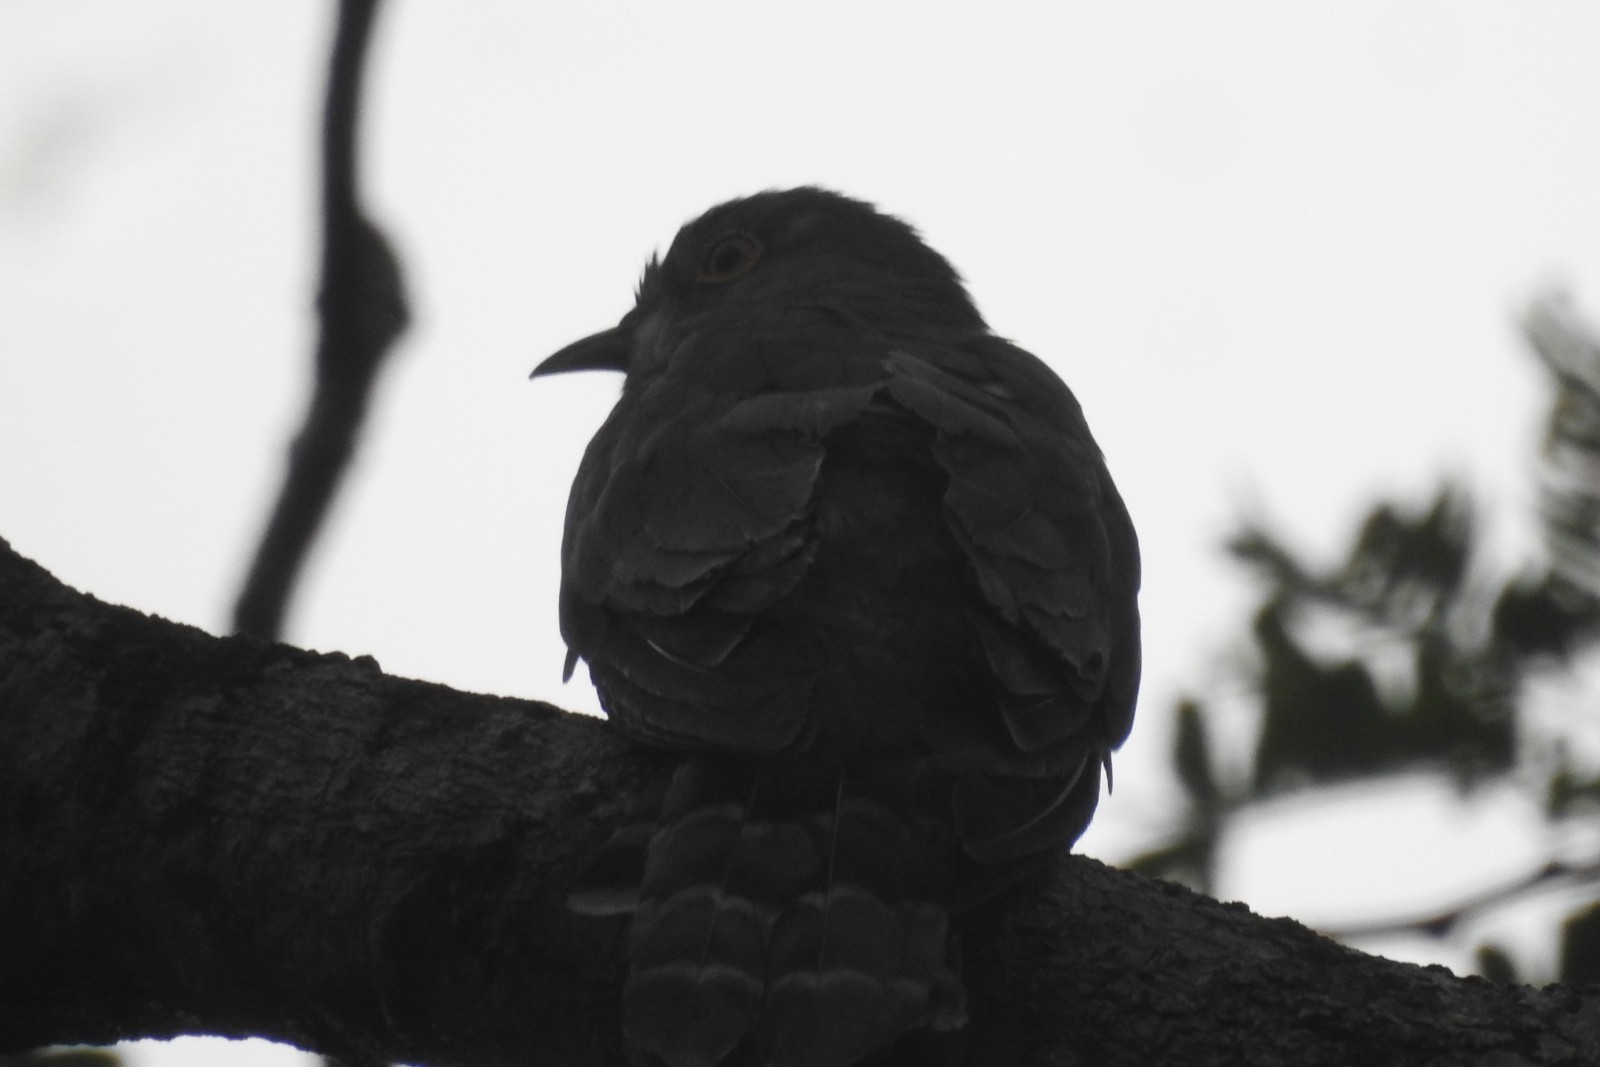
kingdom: Animalia
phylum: Chordata
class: Aves
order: Cuculiformes
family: Cuculidae
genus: Cuculus
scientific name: Cuculus varius
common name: Common hawk cuckoo
